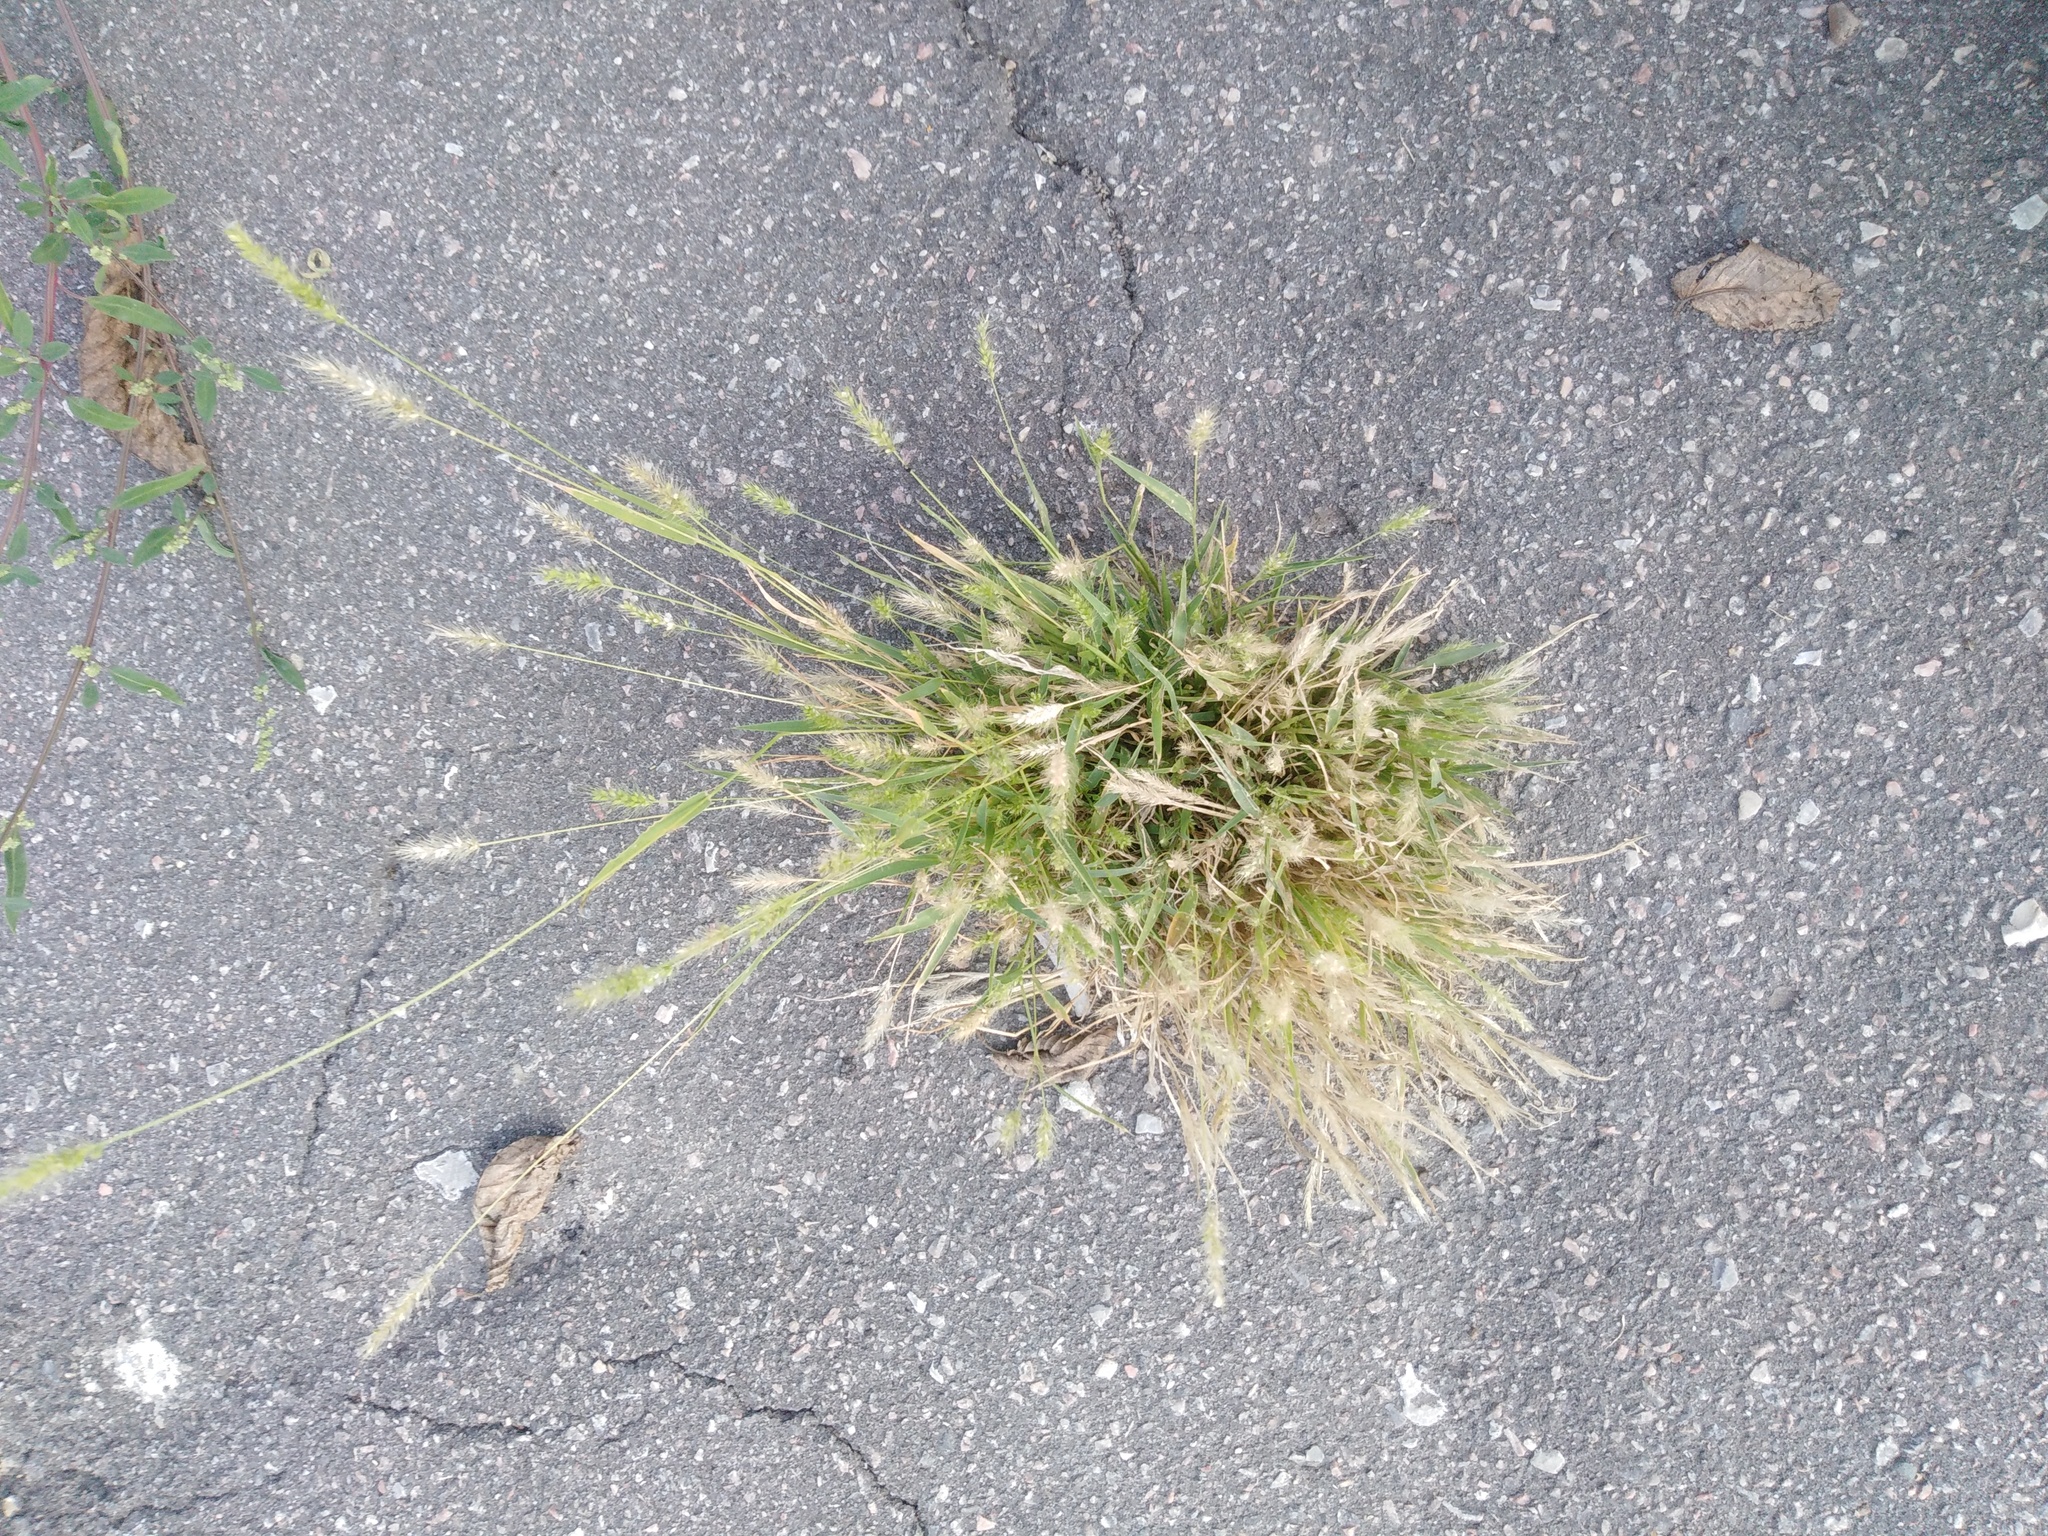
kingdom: Plantae
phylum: Tracheophyta
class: Liliopsida
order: Poales
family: Poaceae
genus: Setaria
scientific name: Setaria viridis
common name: Green bristlegrass
